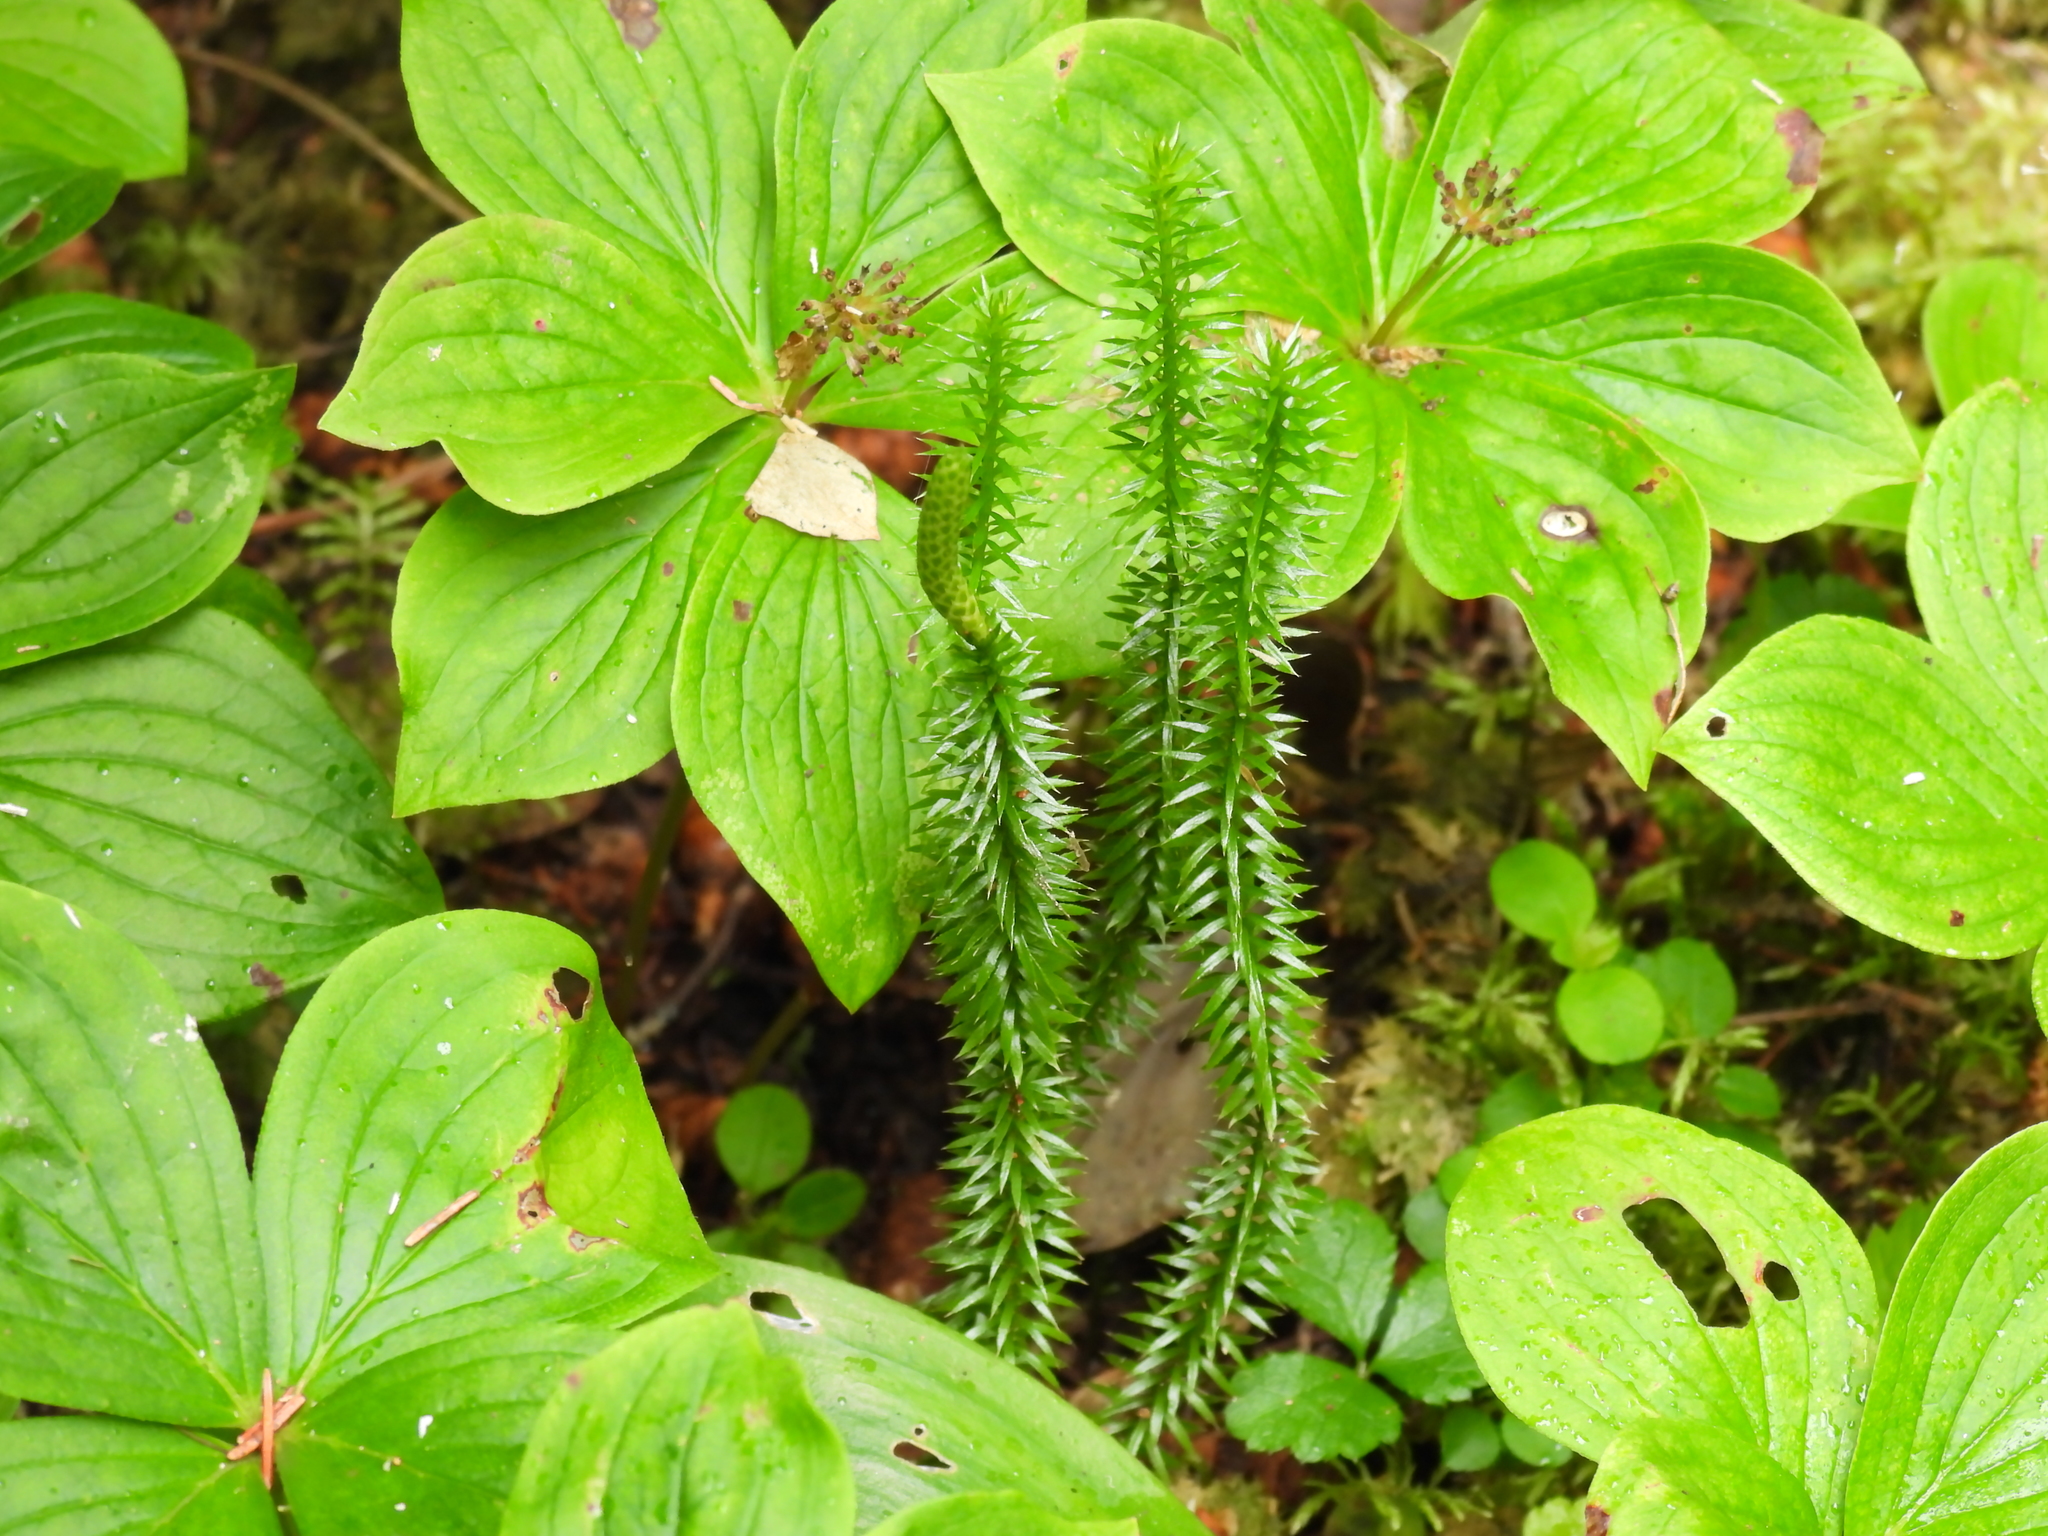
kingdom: Plantae
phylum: Tracheophyta
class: Lycopodiopsida
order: Lycopodiales
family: Lycopodiaceae
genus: Spinulum
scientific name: Spinulum annotinum
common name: Interrupted club-moss
